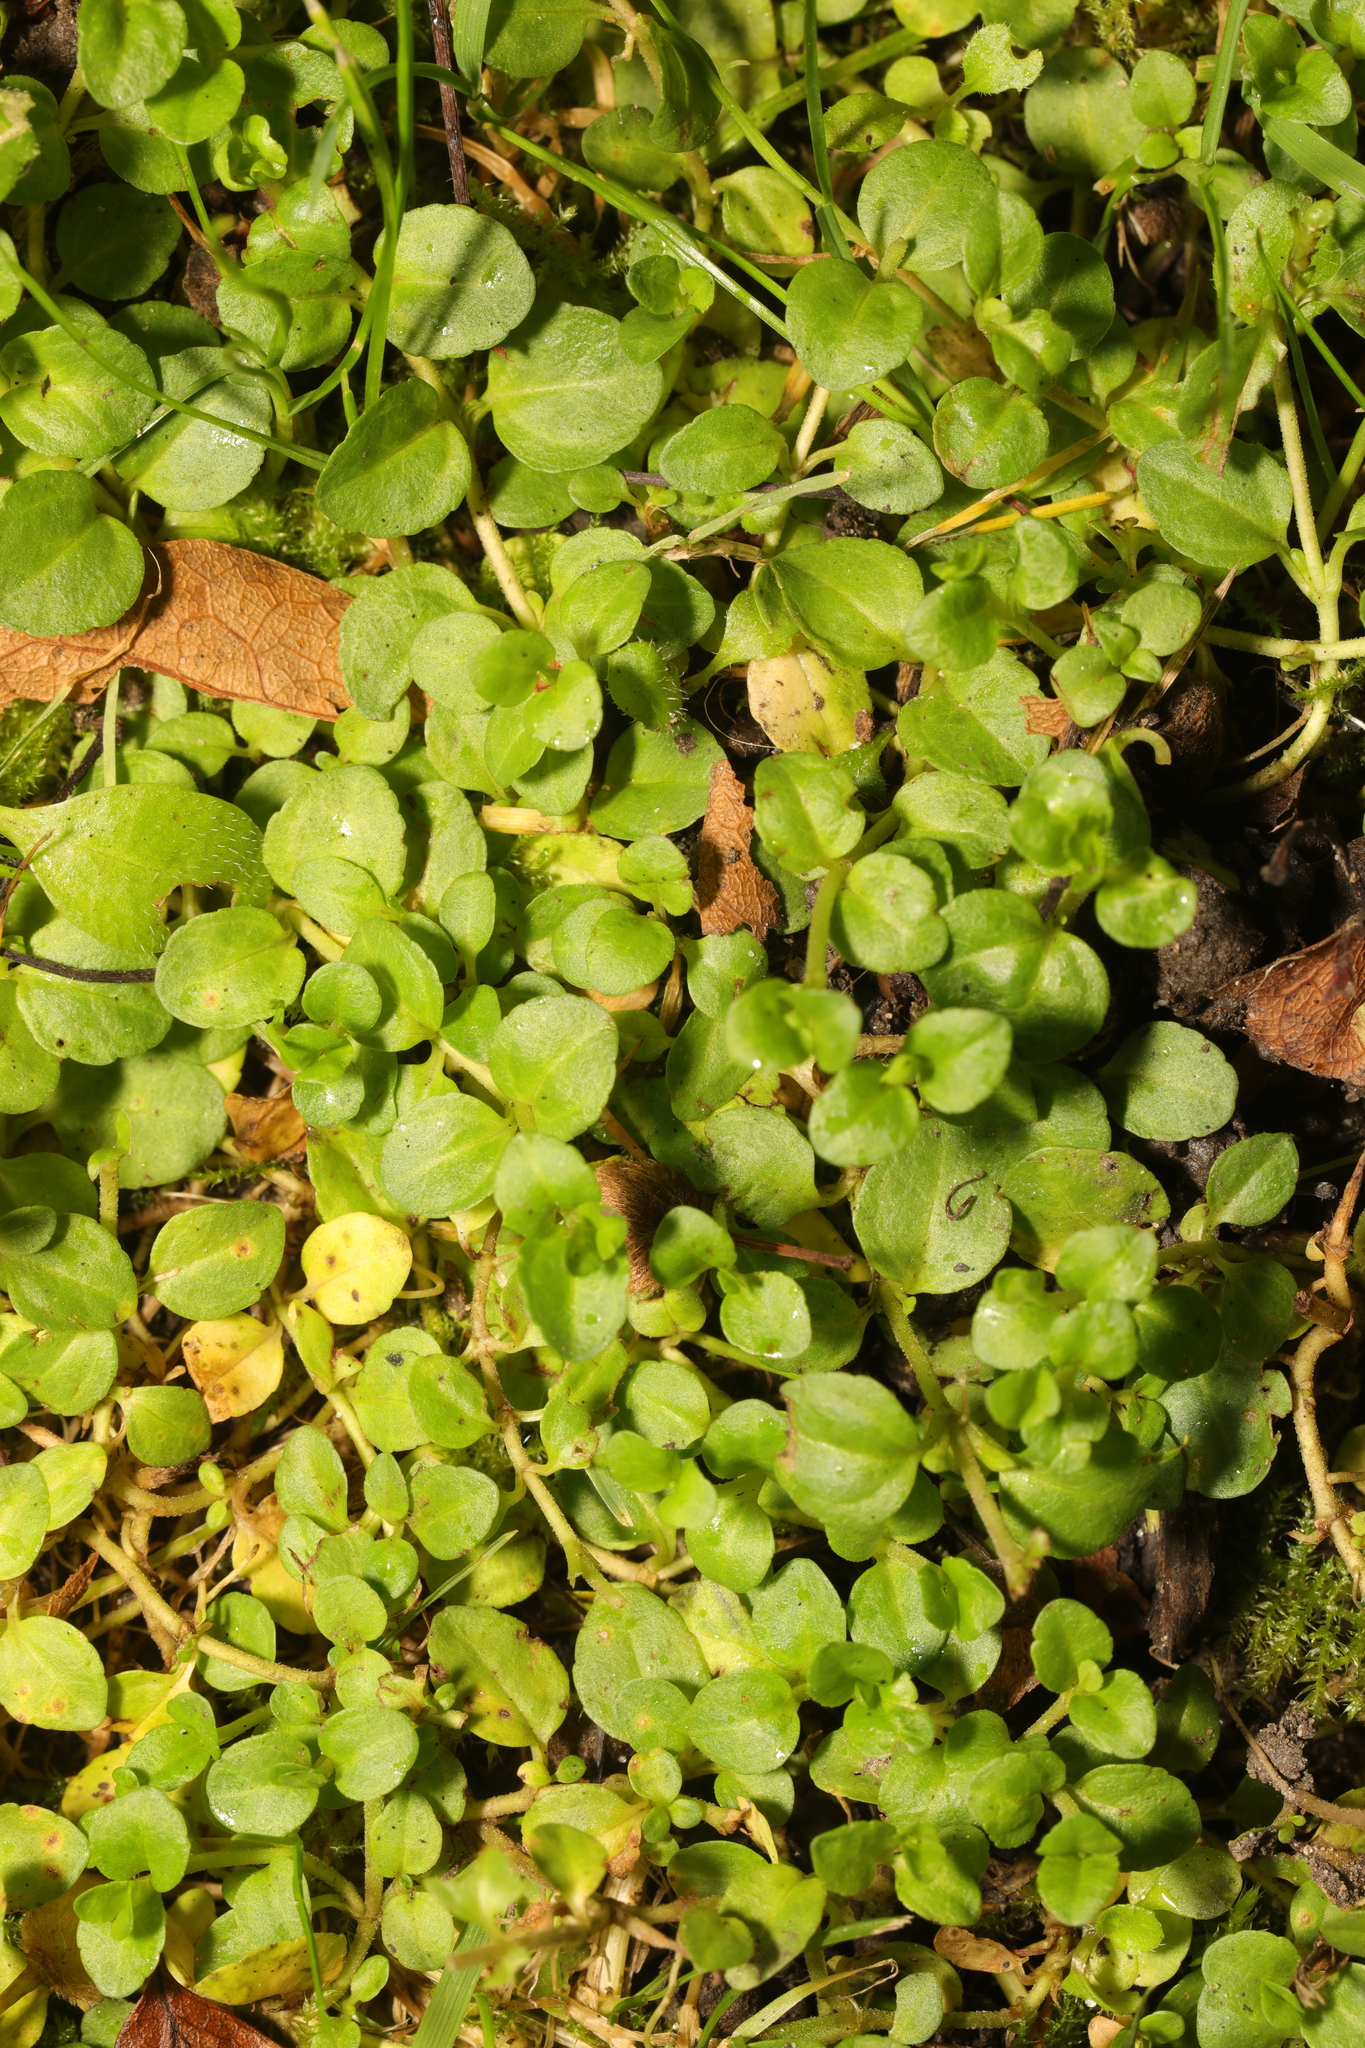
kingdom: Plantae
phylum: Tracheophyta
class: Magnoliopsida
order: Lamiales
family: Plantaginaceae
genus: Veronica
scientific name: Veronica serpyllifolia
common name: Thyme-leaved speedwell
